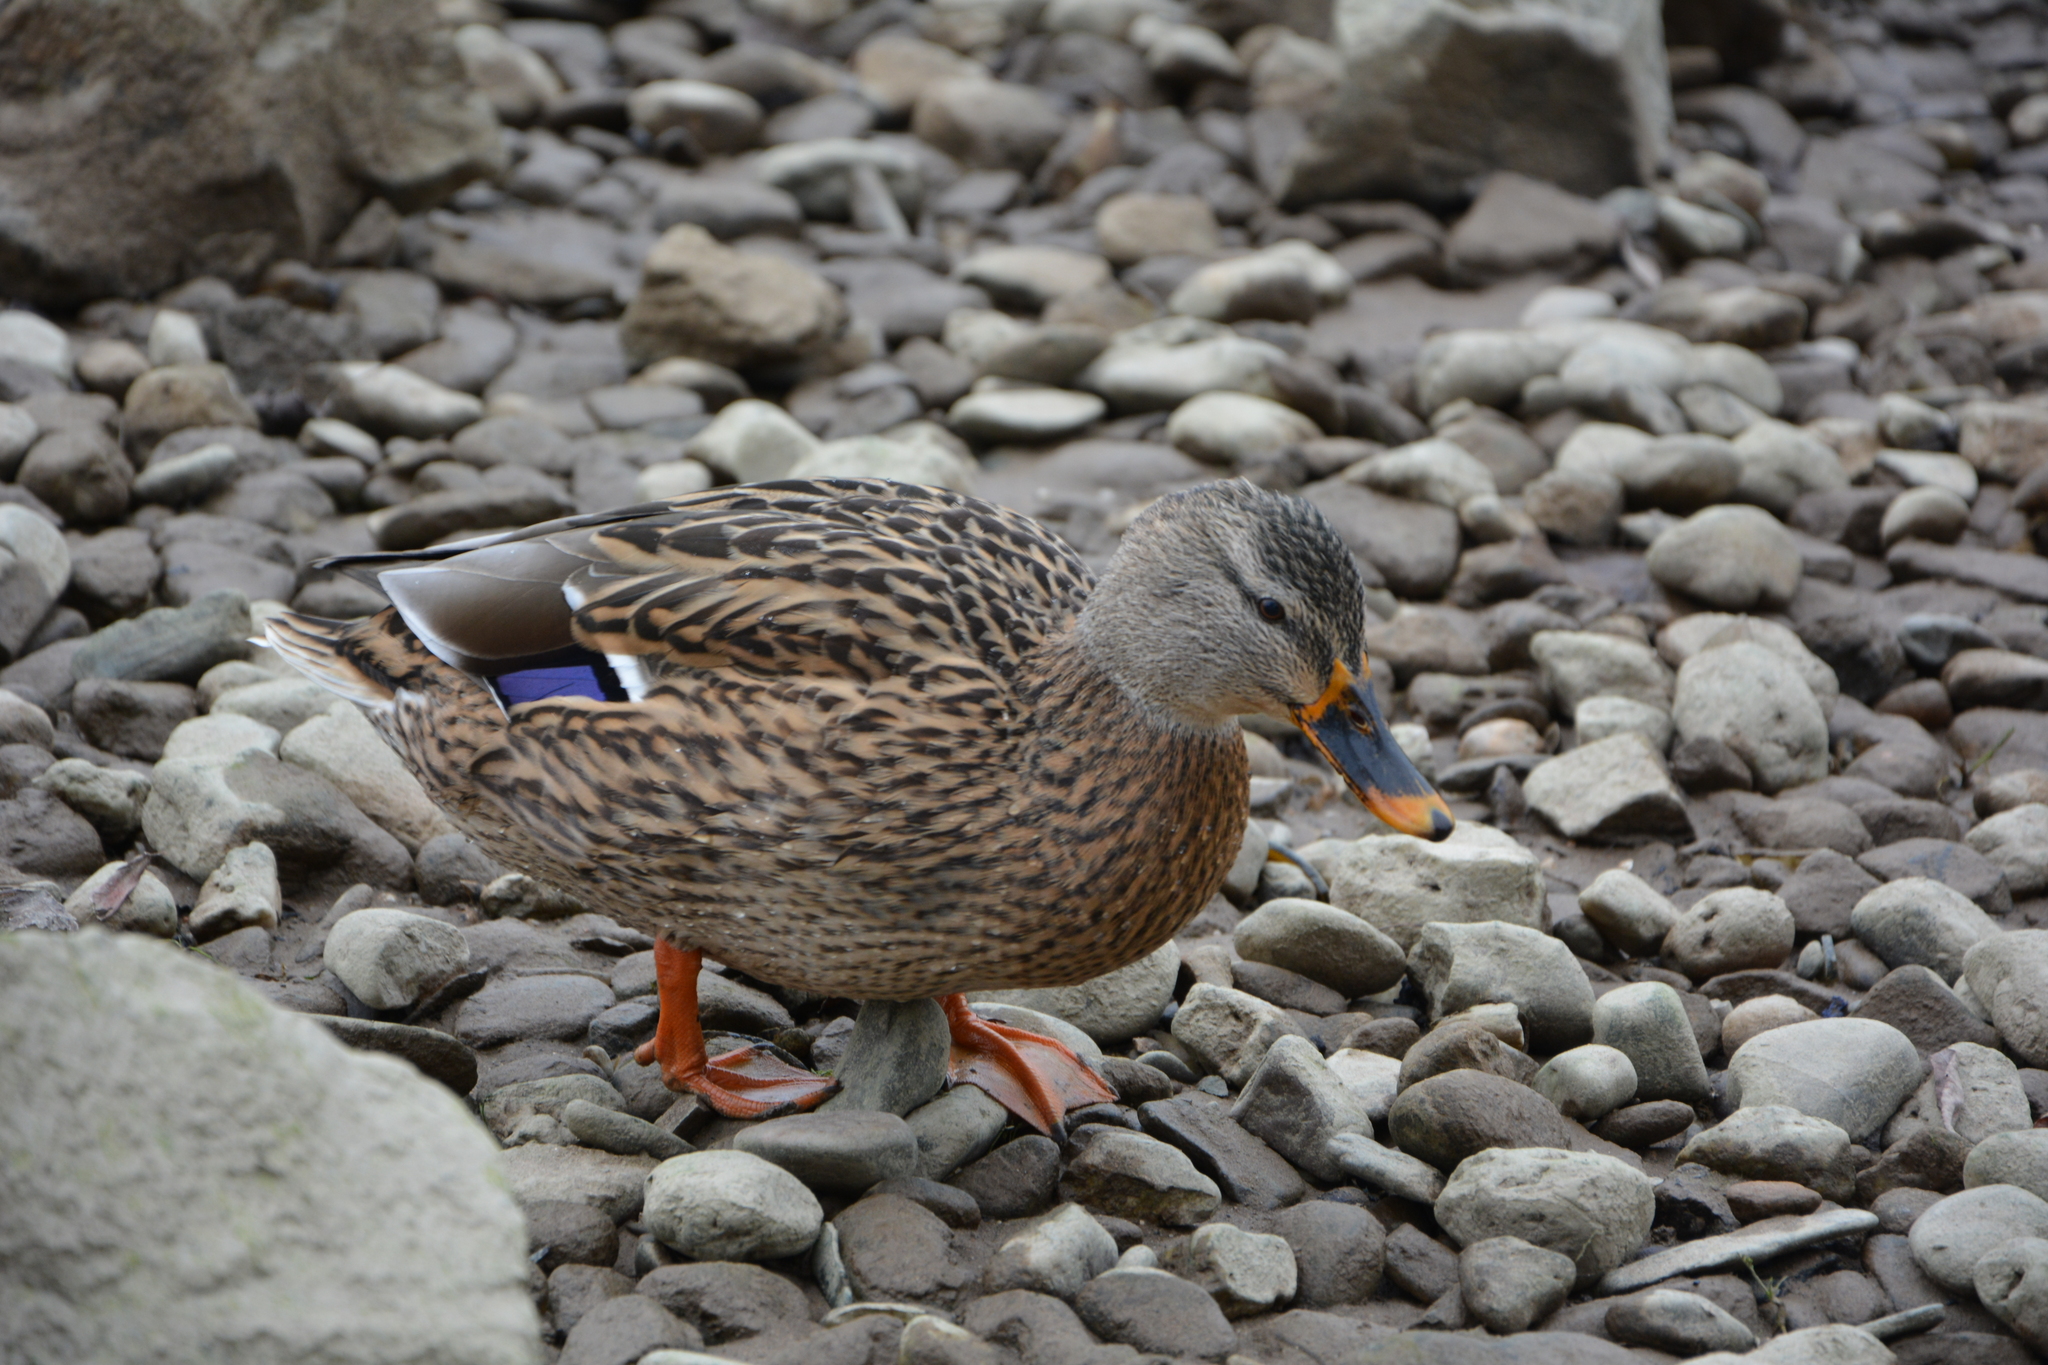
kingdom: Animalia
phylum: Chordata
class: Aves
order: Anseriformes
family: Anatidae
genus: Anas
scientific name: Anas platyrhynchos
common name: Mallard
